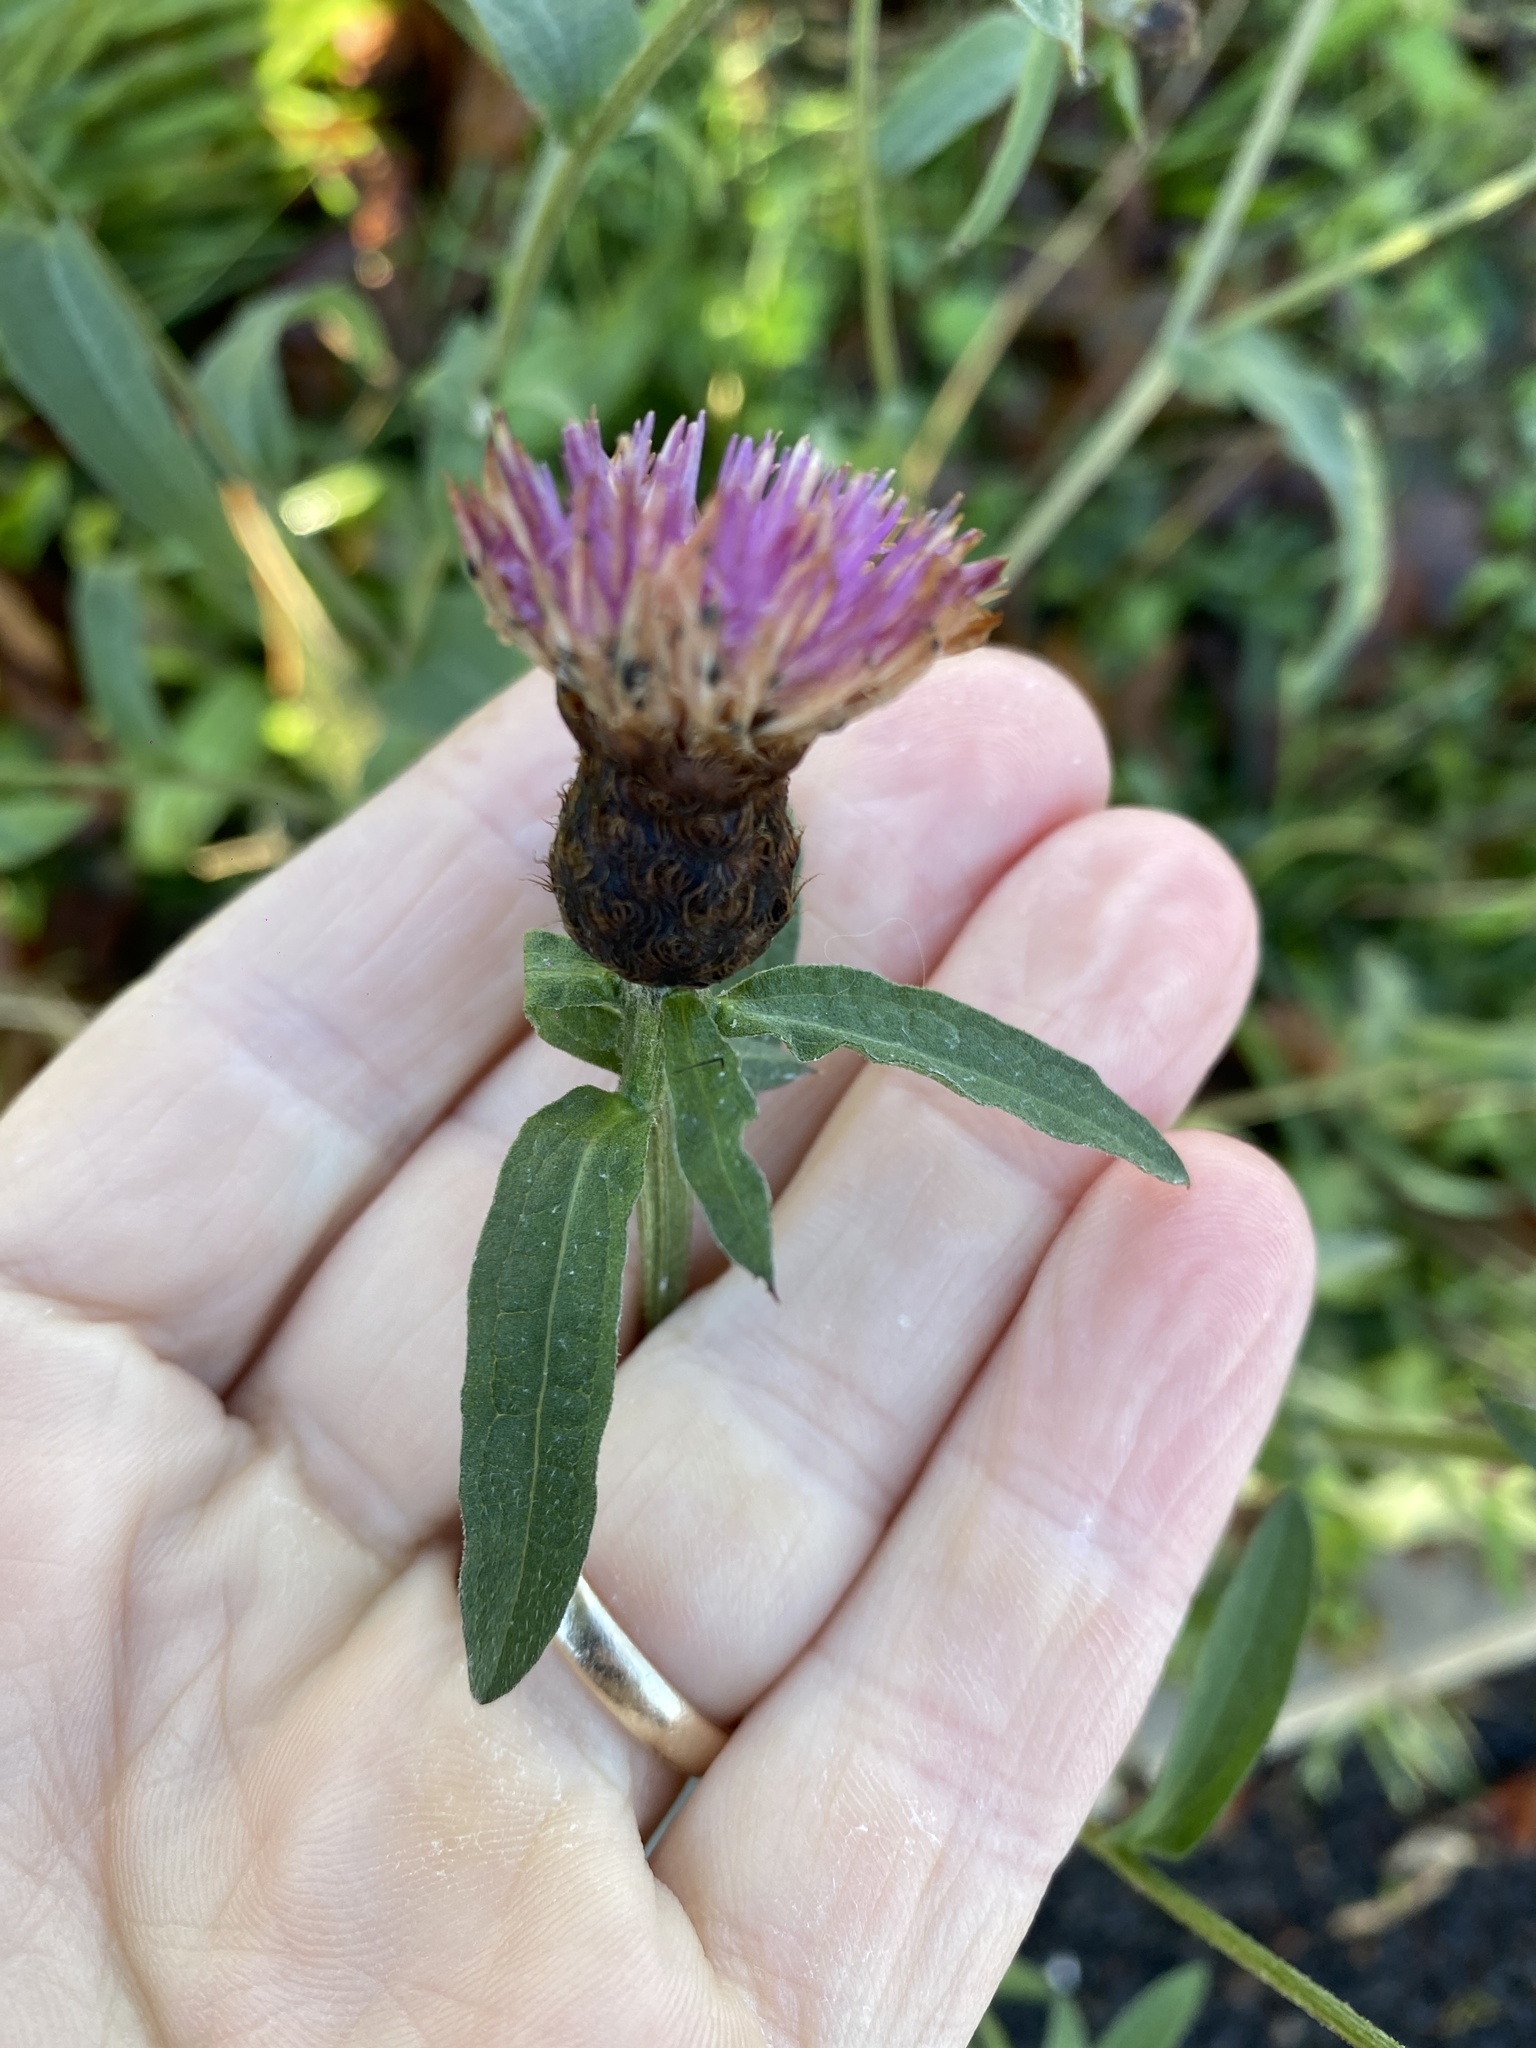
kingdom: Plantae
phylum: Tracheophyta
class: Magnoliopsida
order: Asterales
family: Asteraceae
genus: Centaurea
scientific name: Centaurea nigra
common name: Lesser knapweed
